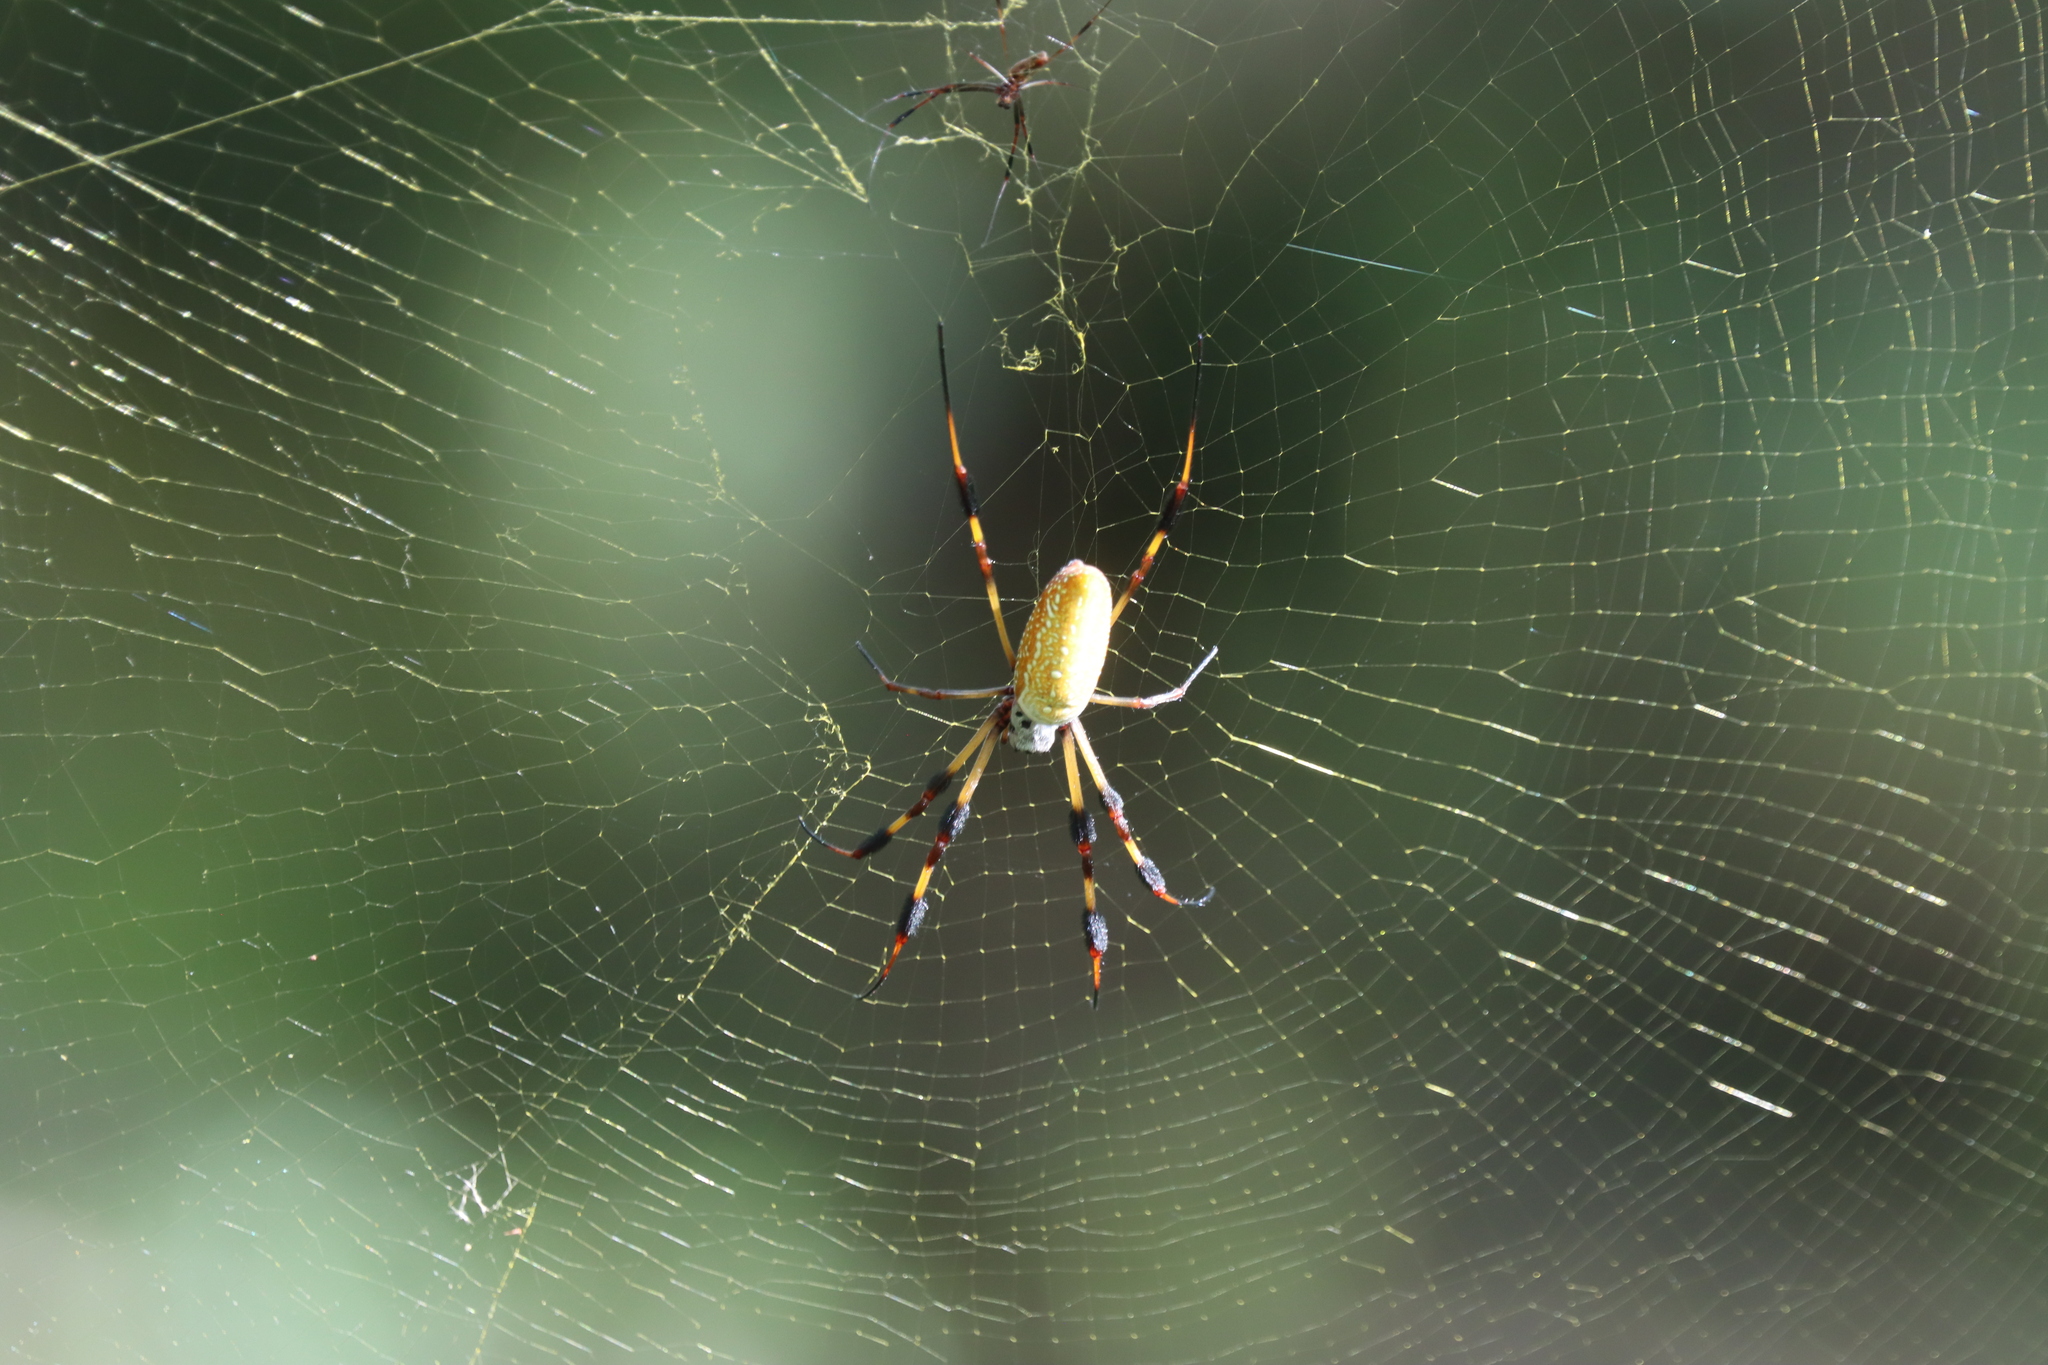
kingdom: Animalia
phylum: Arthropoda
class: Arachnida
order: Araneae
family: Araneidae
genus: Trichonephila
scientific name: Trichonephila clavipes
